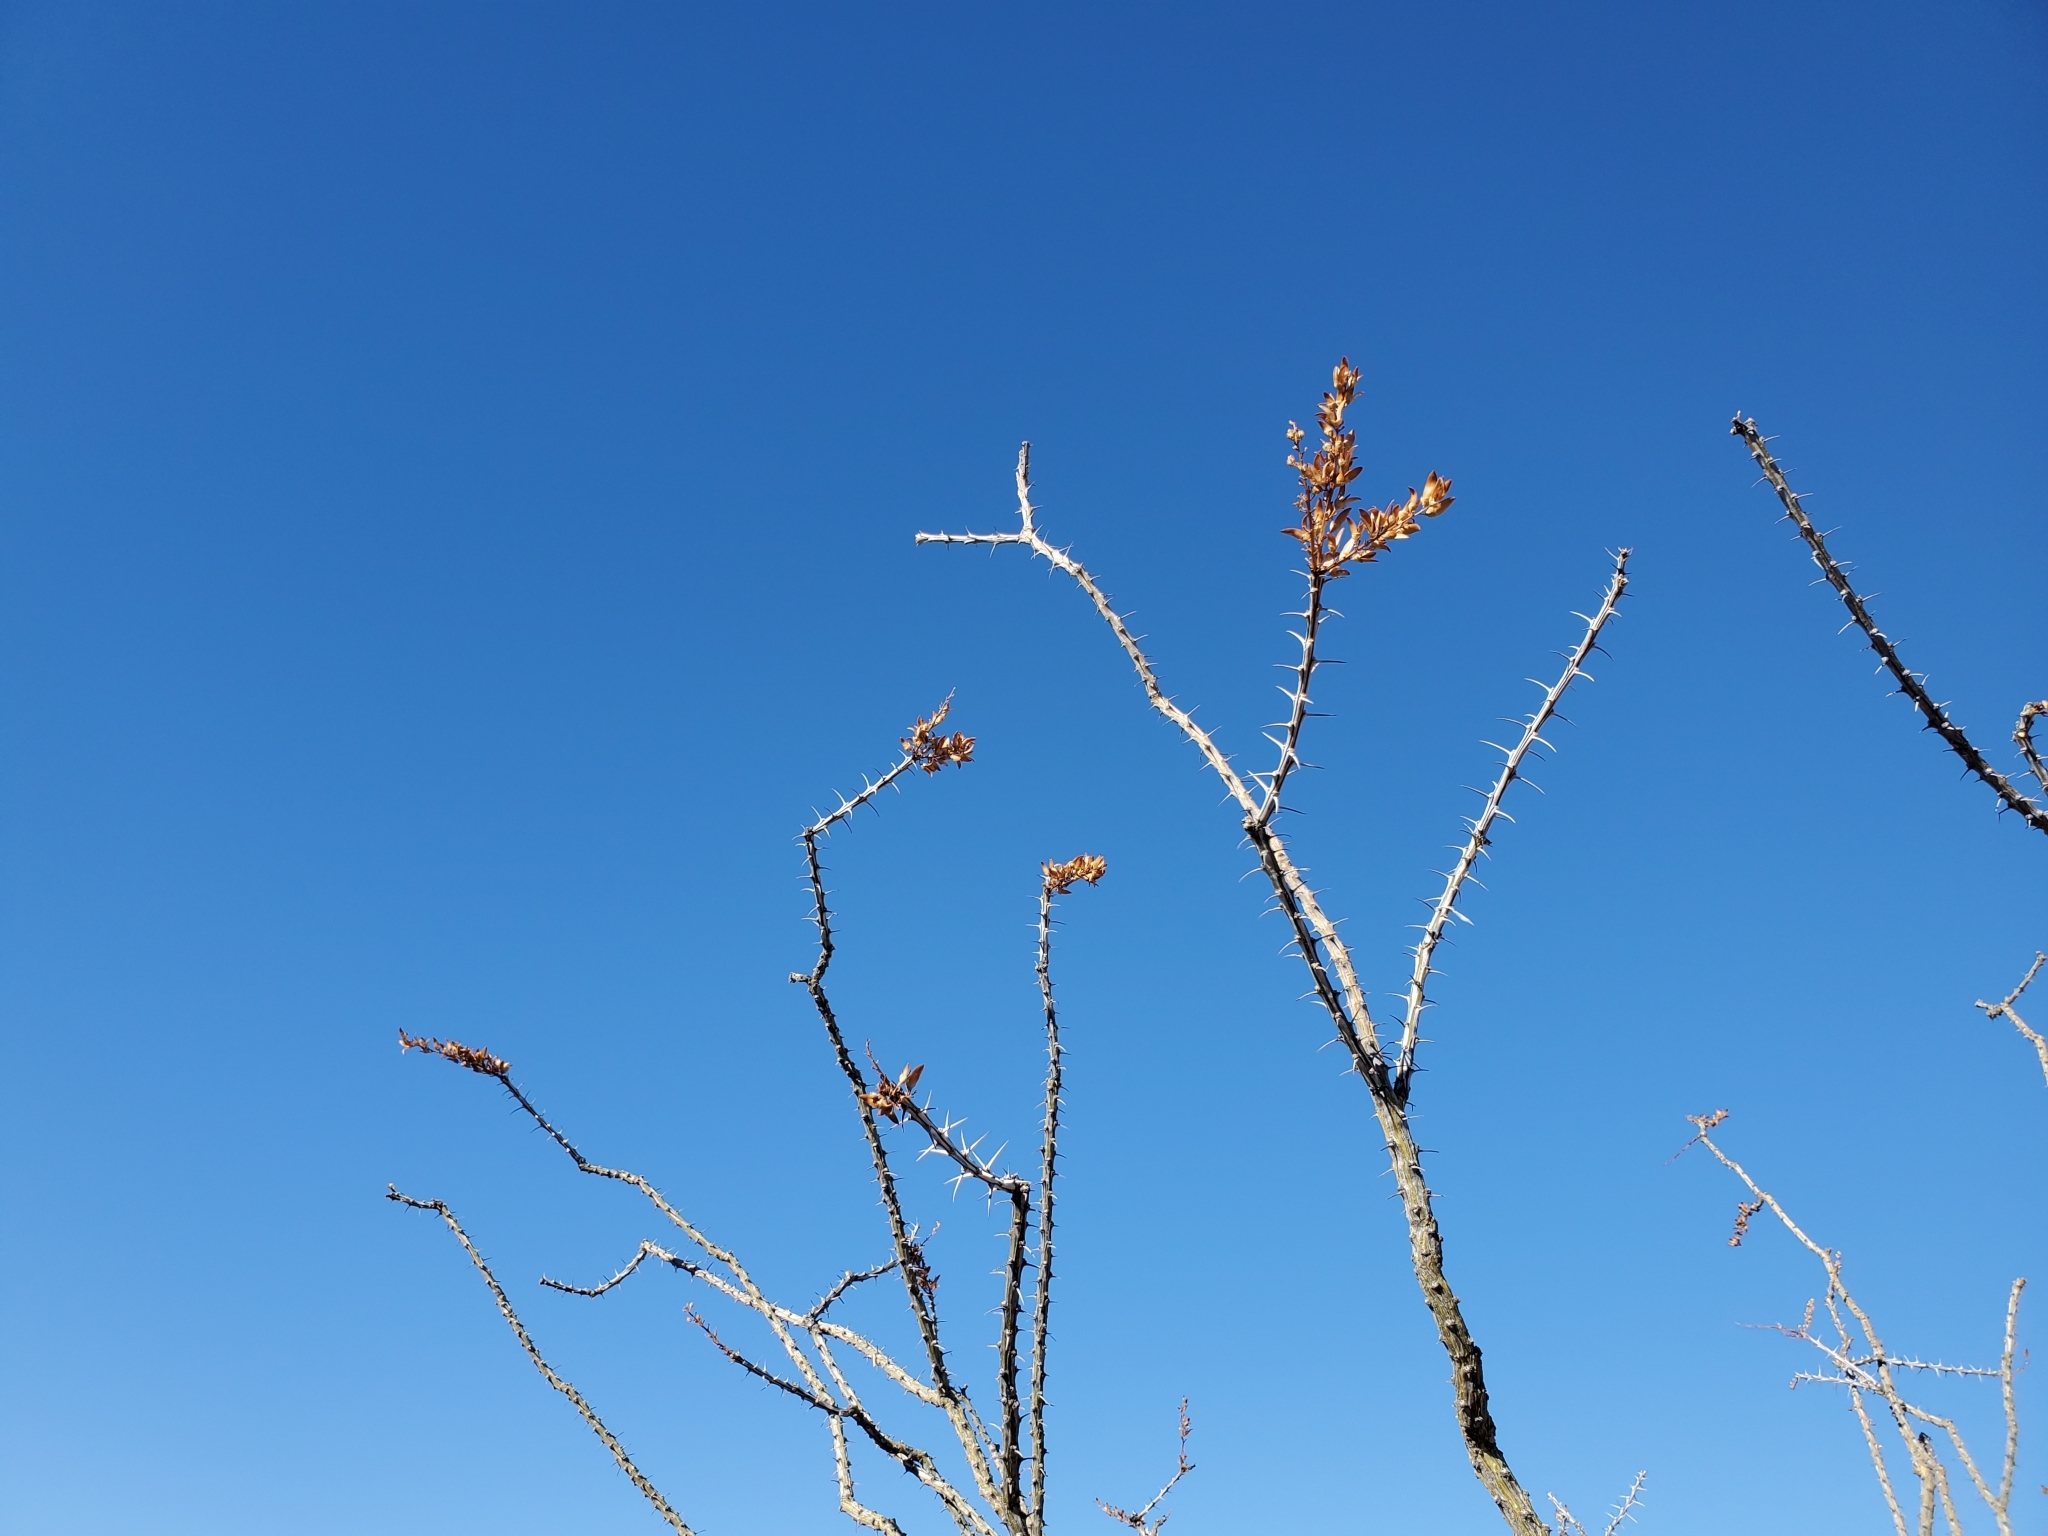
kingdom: Plantae
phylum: Tracheophyta
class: Magnoliopsida
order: Ericales
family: Fouquieriaceae
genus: Fouquieria
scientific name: Fouquieria splendens
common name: Vine-cactus
